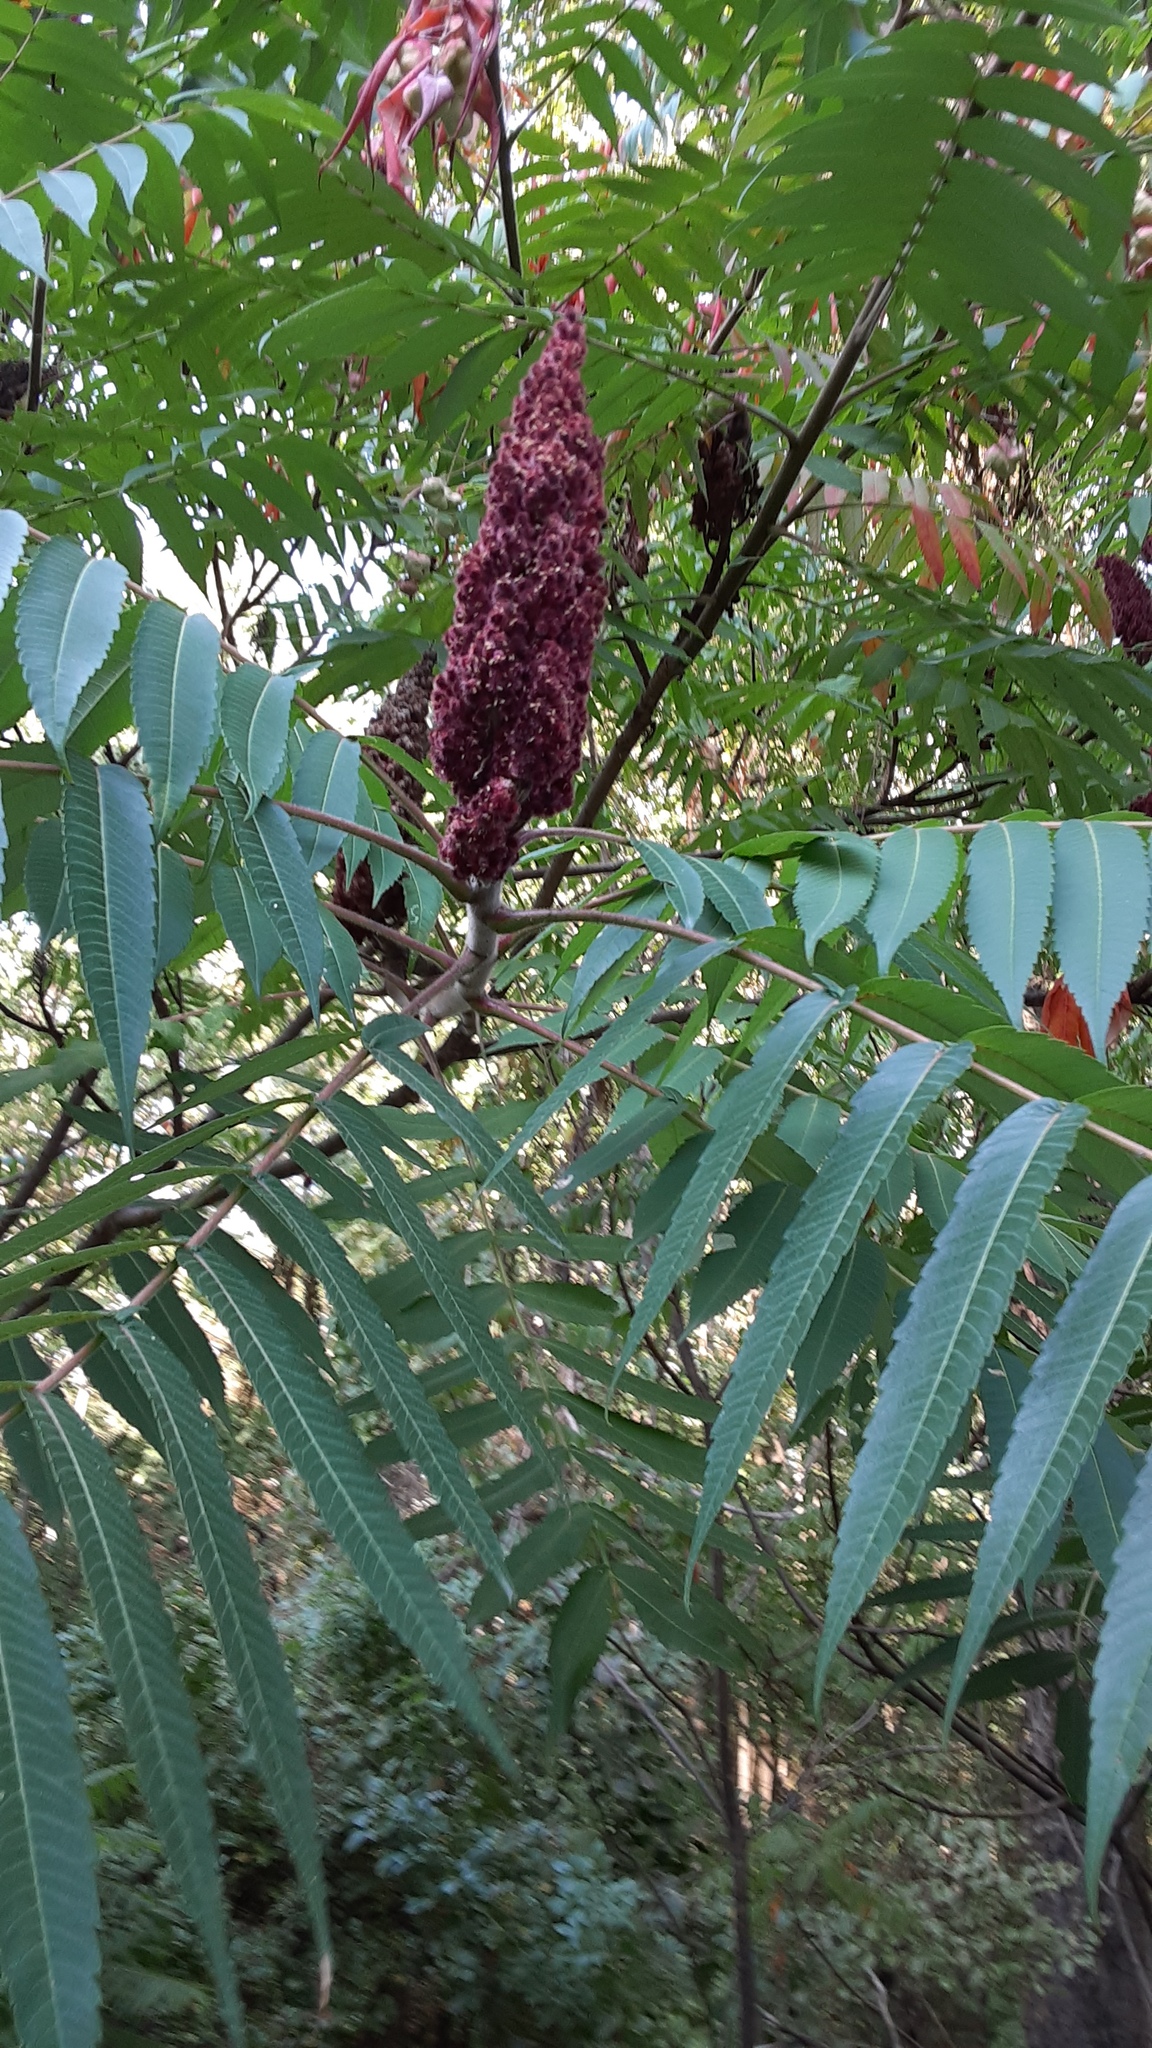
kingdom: Plantae
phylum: Tracheophyta
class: Magnoliopsida
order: Sapindales
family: Anacardiaceae
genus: Rhus
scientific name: Rhus typhina
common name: Staghorn sumac
